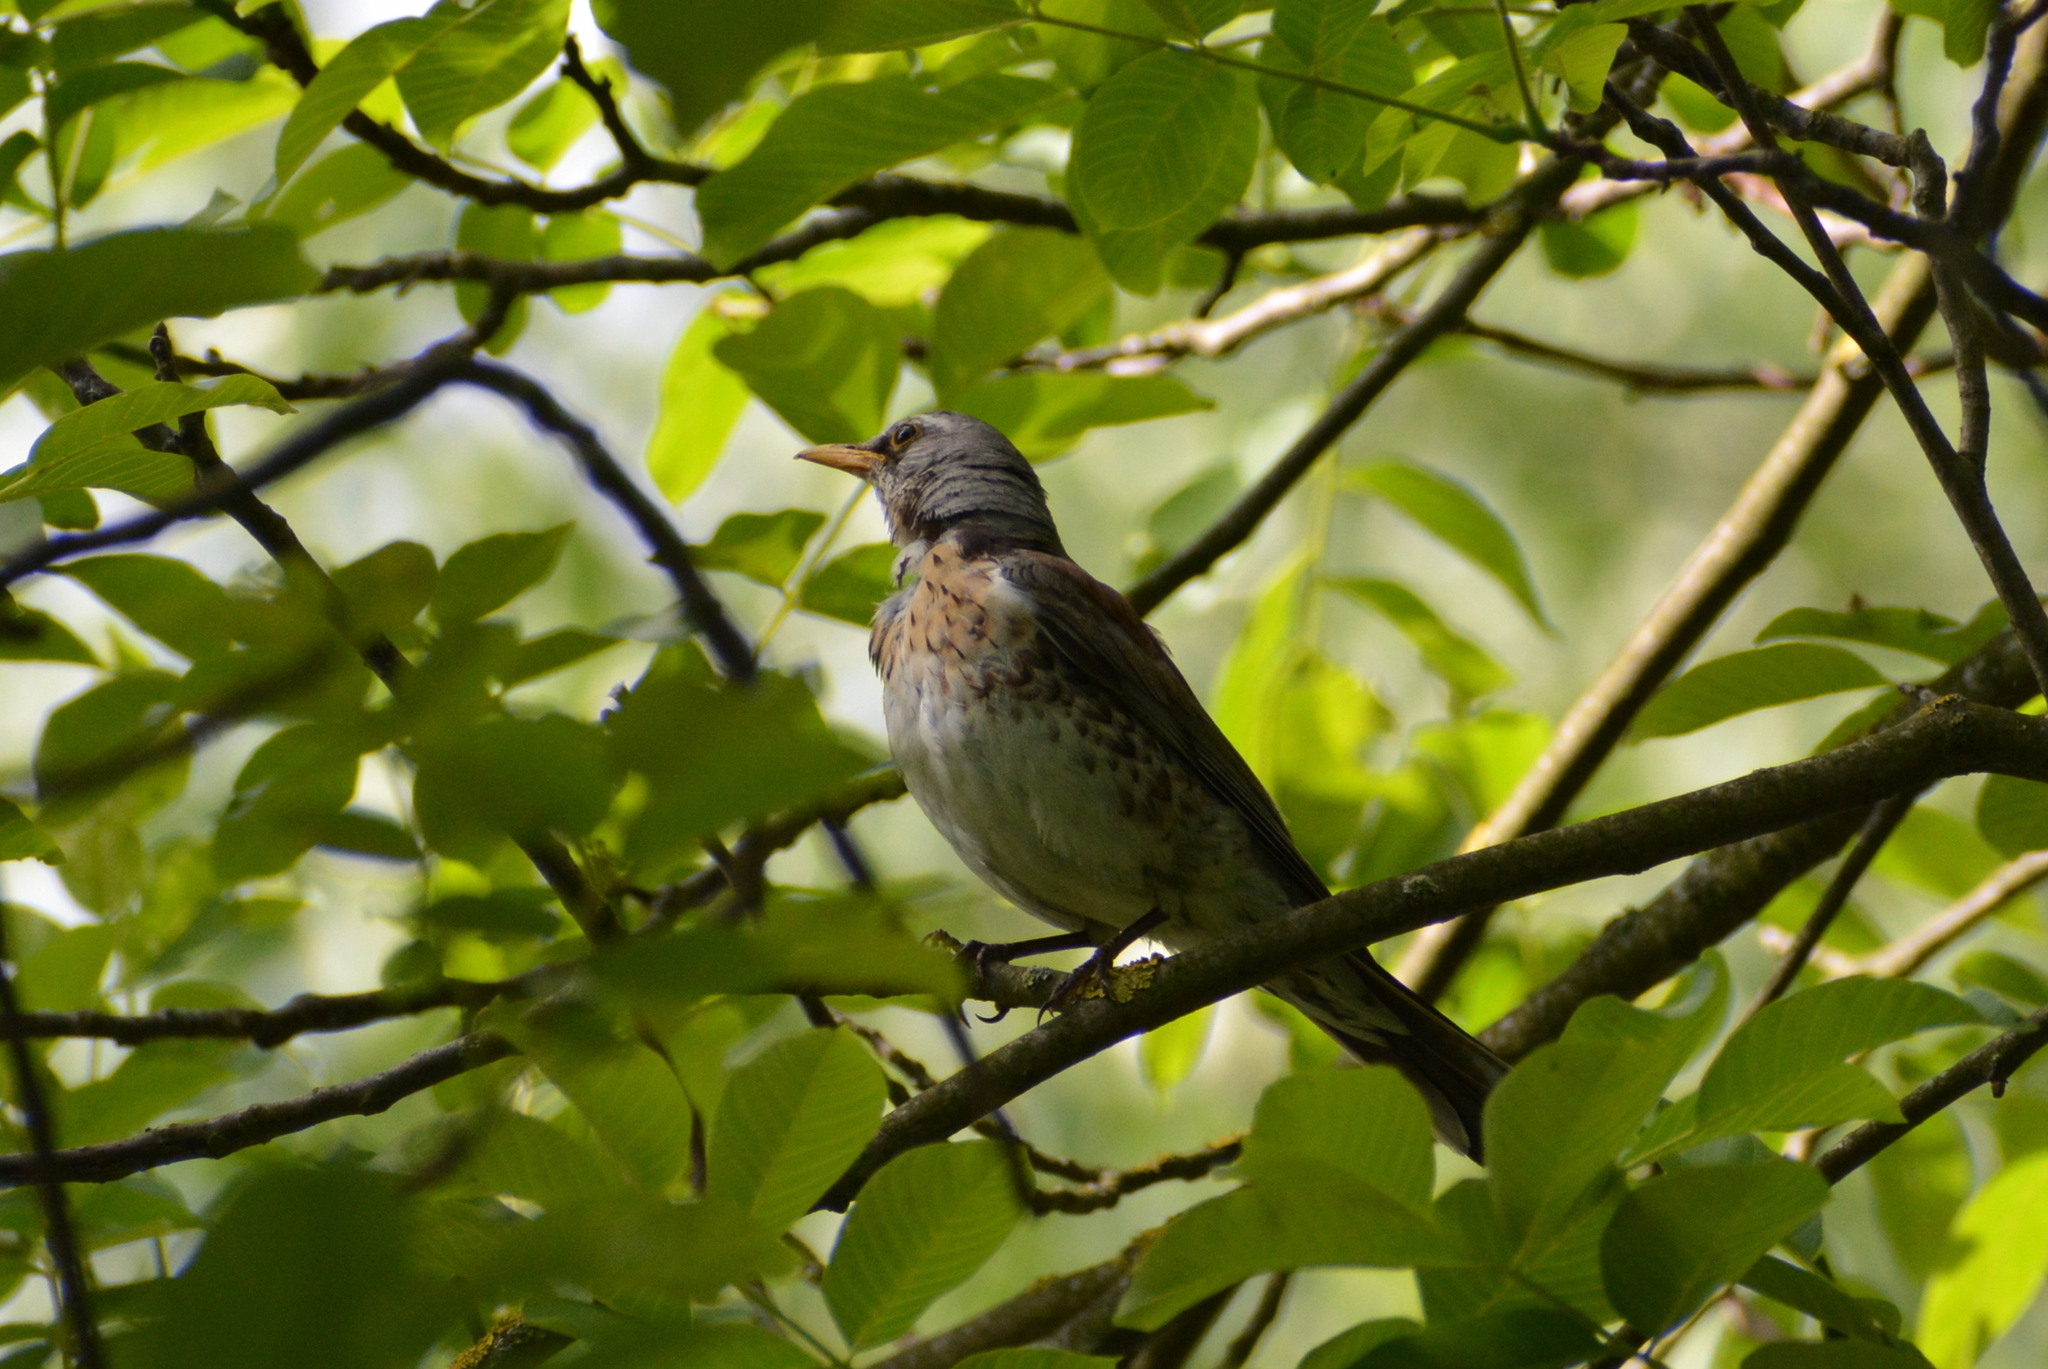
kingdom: Animalia
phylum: Chordata
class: Aves
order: Passeriformes
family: Turdidae
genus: Turdus
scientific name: Turdus pilaris
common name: Fieldfare
